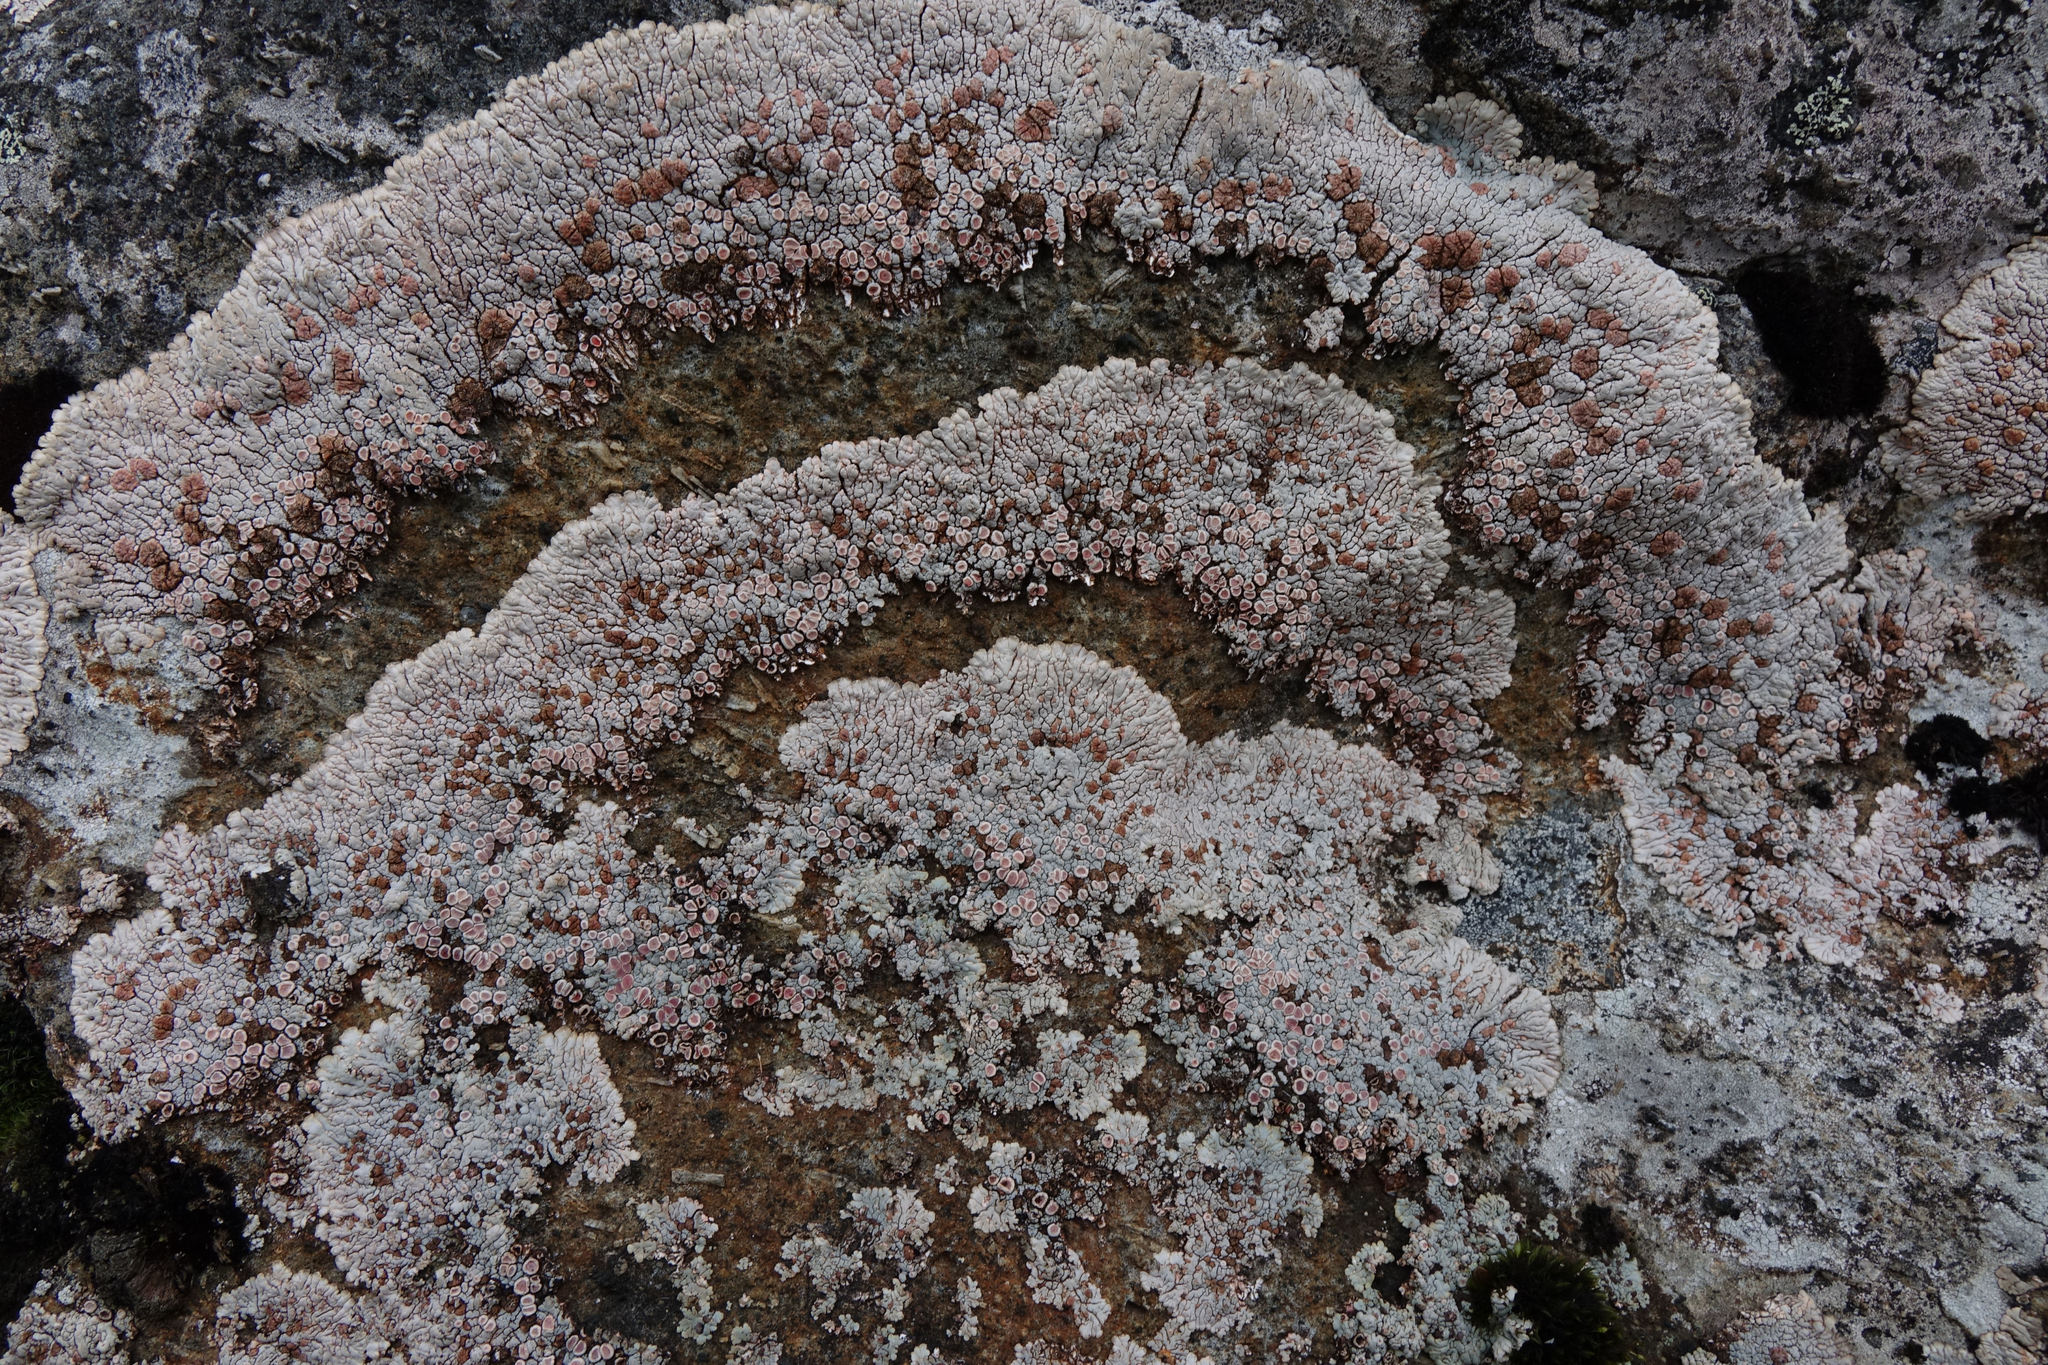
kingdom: Fungi
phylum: Ascomycota
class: Lecanoromycetes
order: Baeomycetales
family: Trapeliaceae
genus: Placopsis
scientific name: Placopsis rhodophthalma
